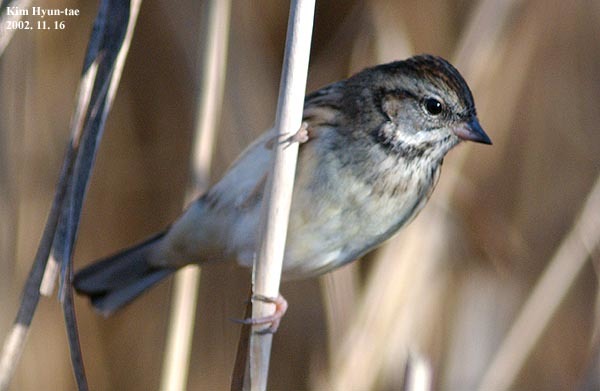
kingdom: Animalia
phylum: Chordata
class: Aves
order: Passeriformes
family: Emberizidae
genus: Emberiza
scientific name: Emberiza spodocephala
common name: Black-faced bunting
